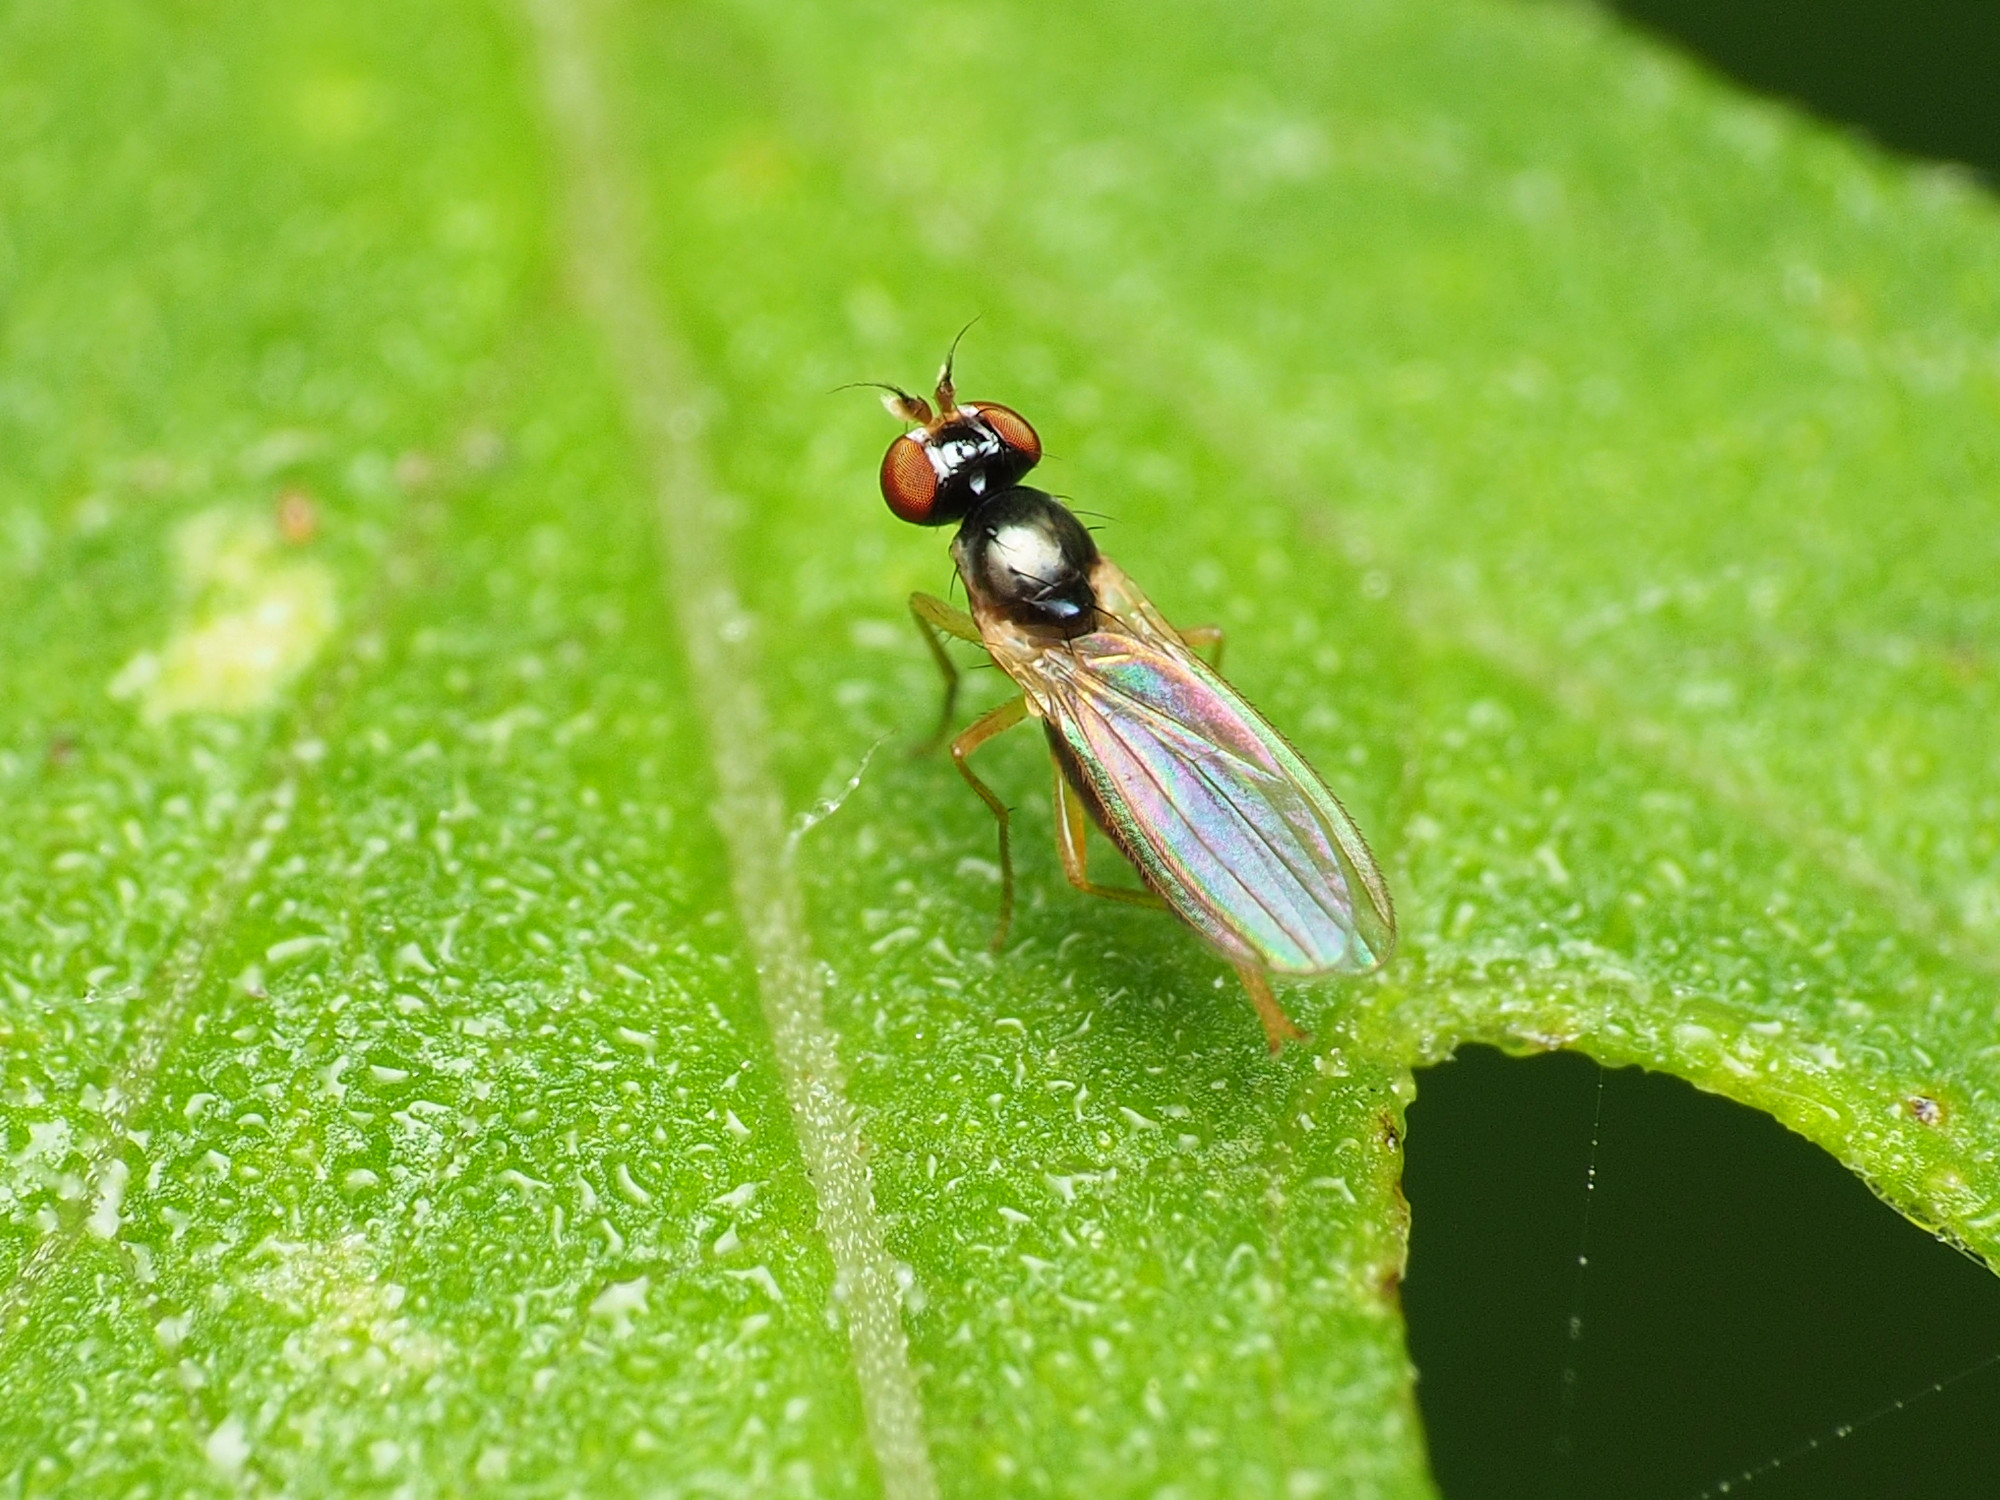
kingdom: Animalia
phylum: Arthropoda
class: Insecta
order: Diptera
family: Anthomyzidae
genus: Mumetopia
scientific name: Mumetopia occipitalis
